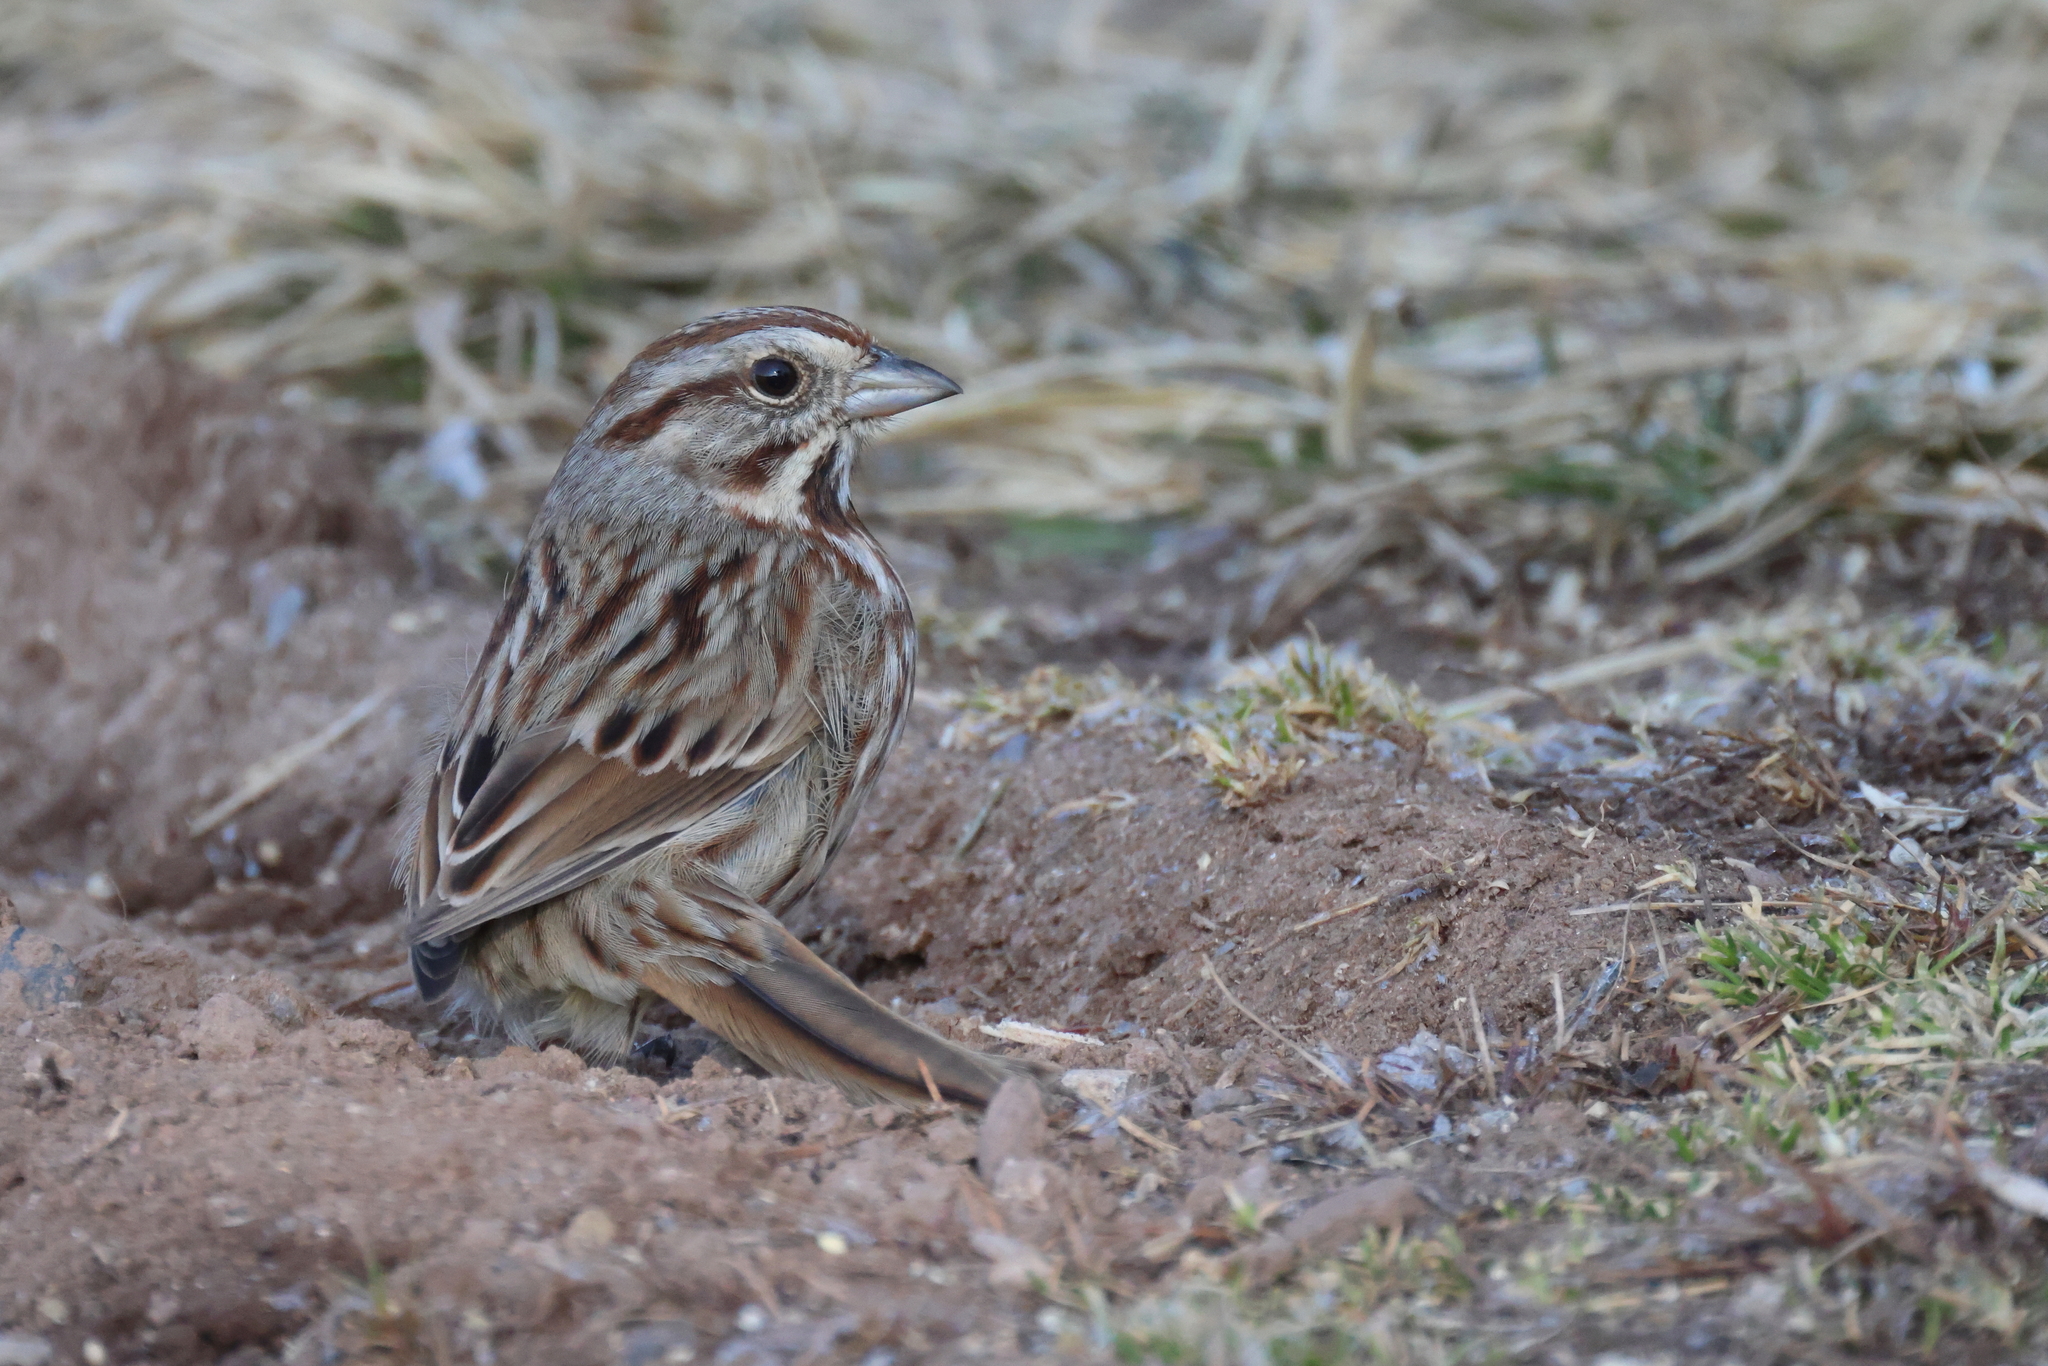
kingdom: Animalia
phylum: Chordata
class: Aves
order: Passeriformes
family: Passerellidae
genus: Melospiza
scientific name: Melospiza melodia
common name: Song sparrow
